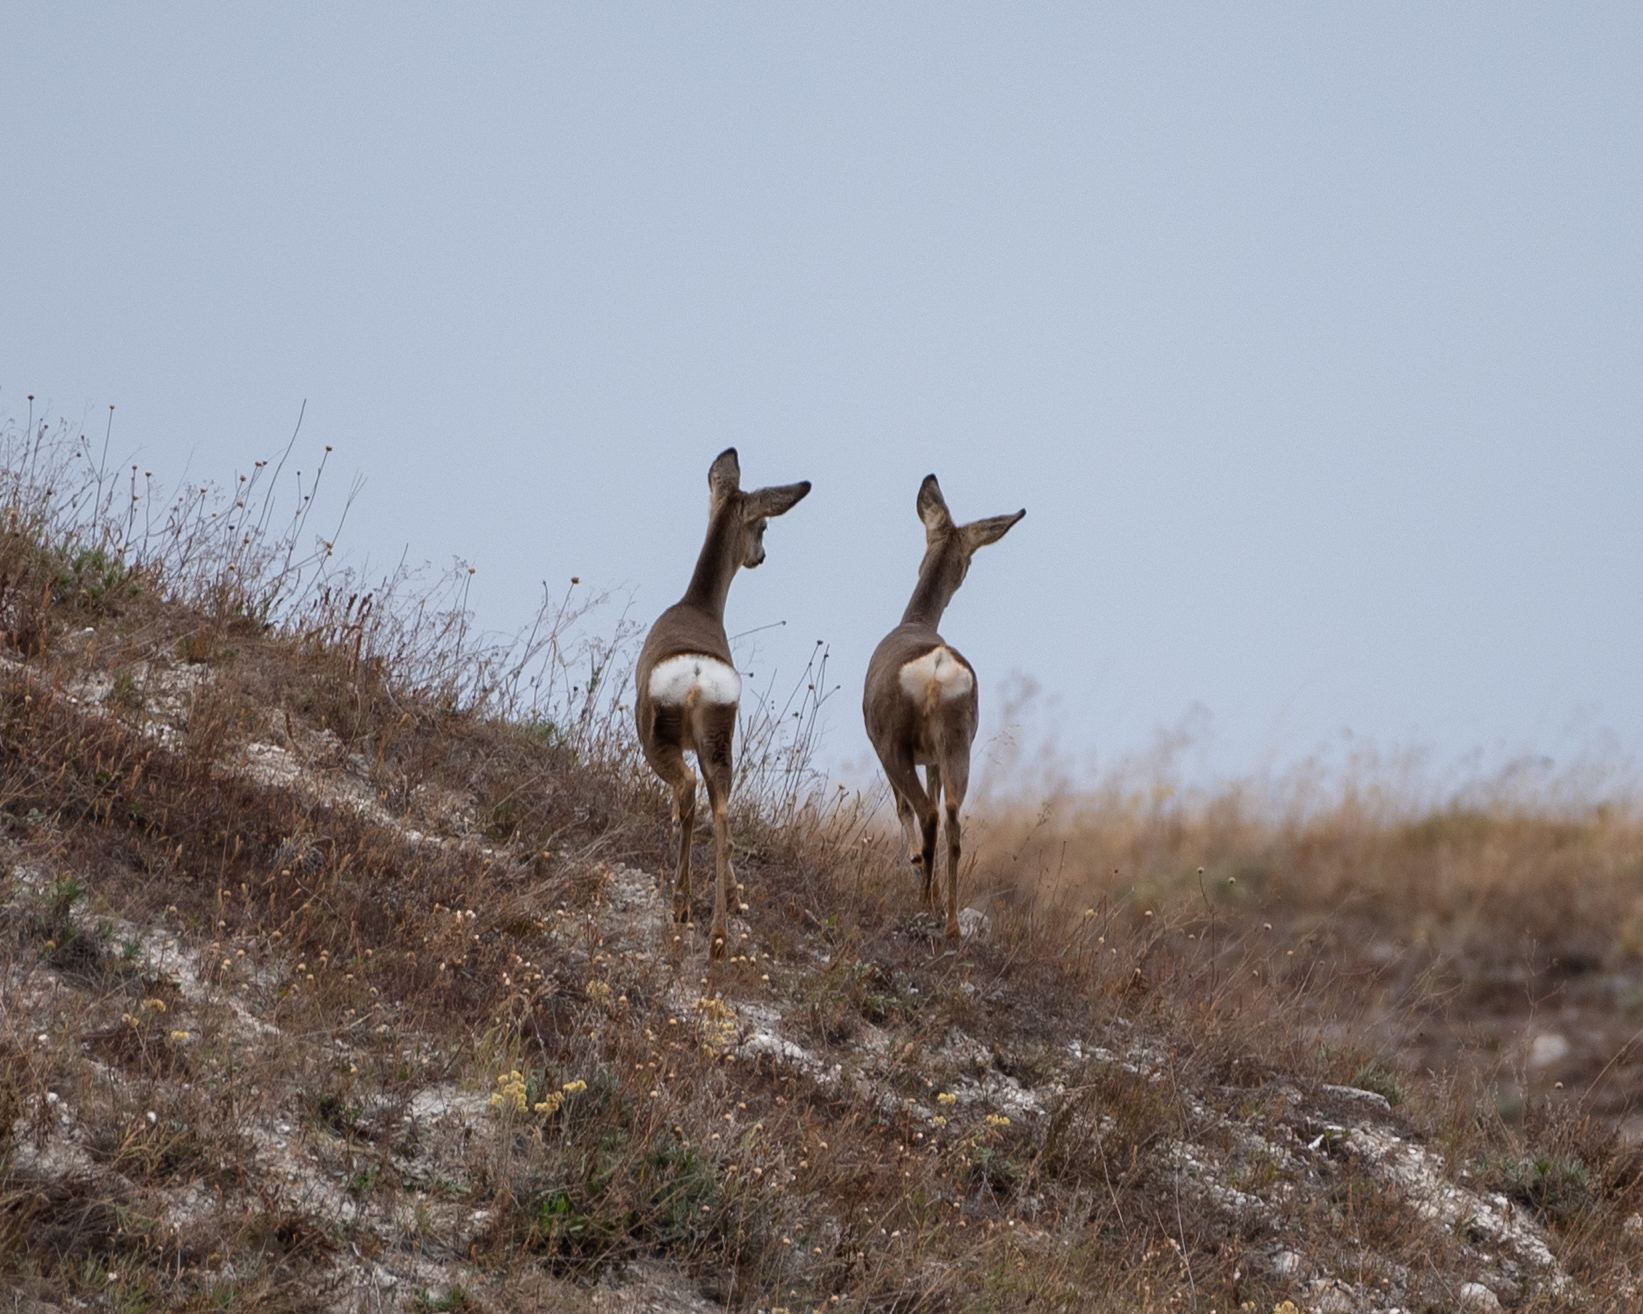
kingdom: Animalia
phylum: Chordata
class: Mammalia
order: Artiodactyla
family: Cervidae
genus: Capreolus
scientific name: Capreolus capreolus
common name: Western roe deer
